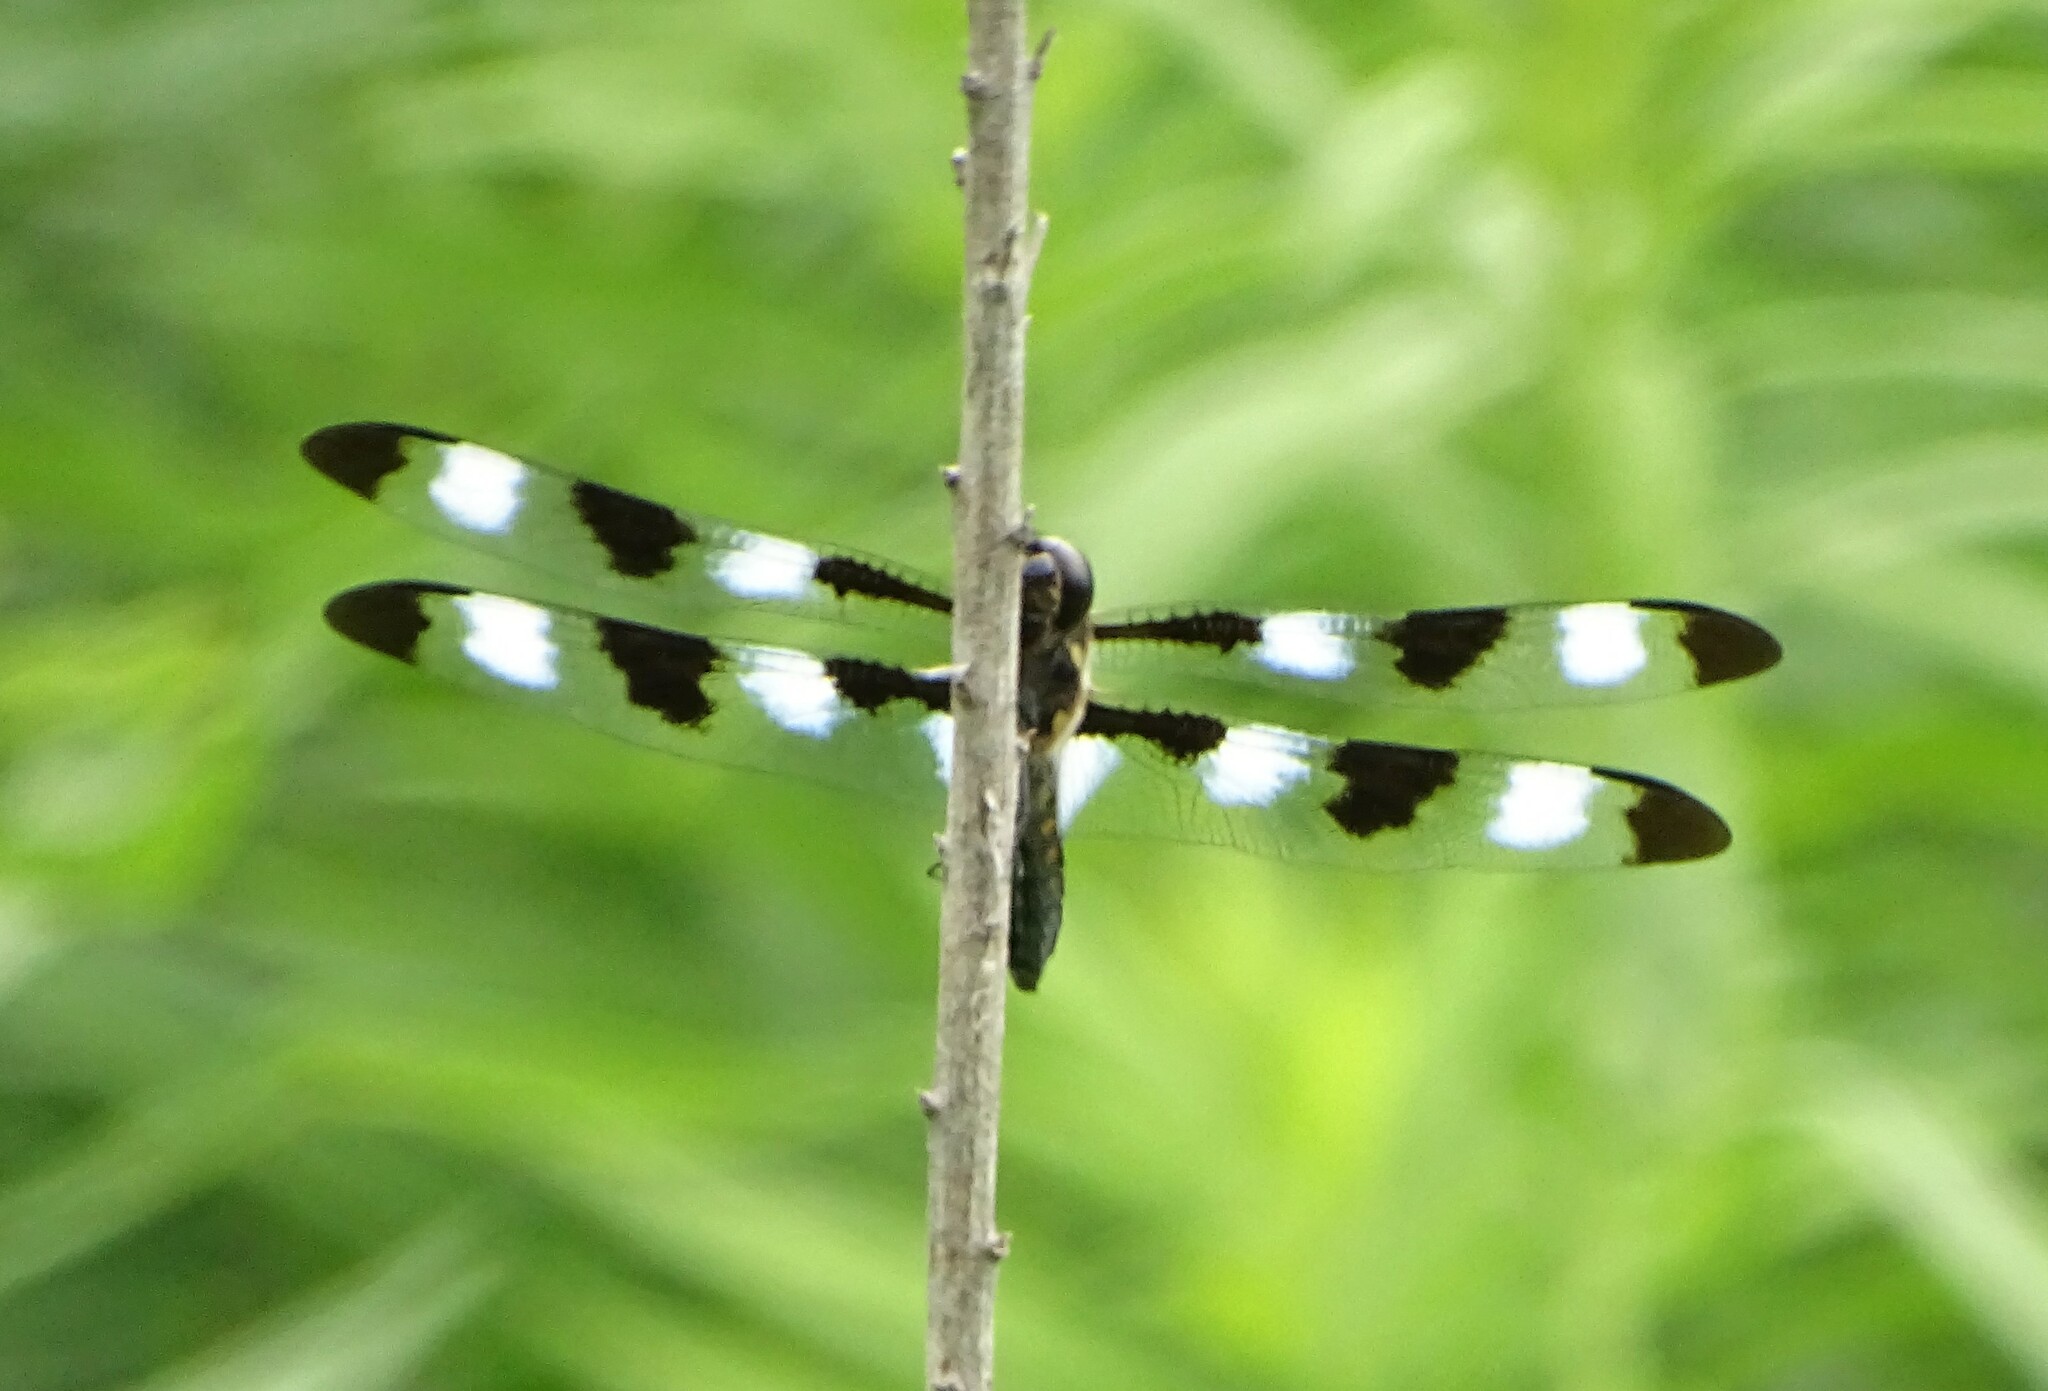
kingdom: Animalia
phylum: Arthropoda
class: Insecta
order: Odonata
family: Libellulidae
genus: Libellula
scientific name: Libellula pulchella
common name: Twelve-spotted skimmer
